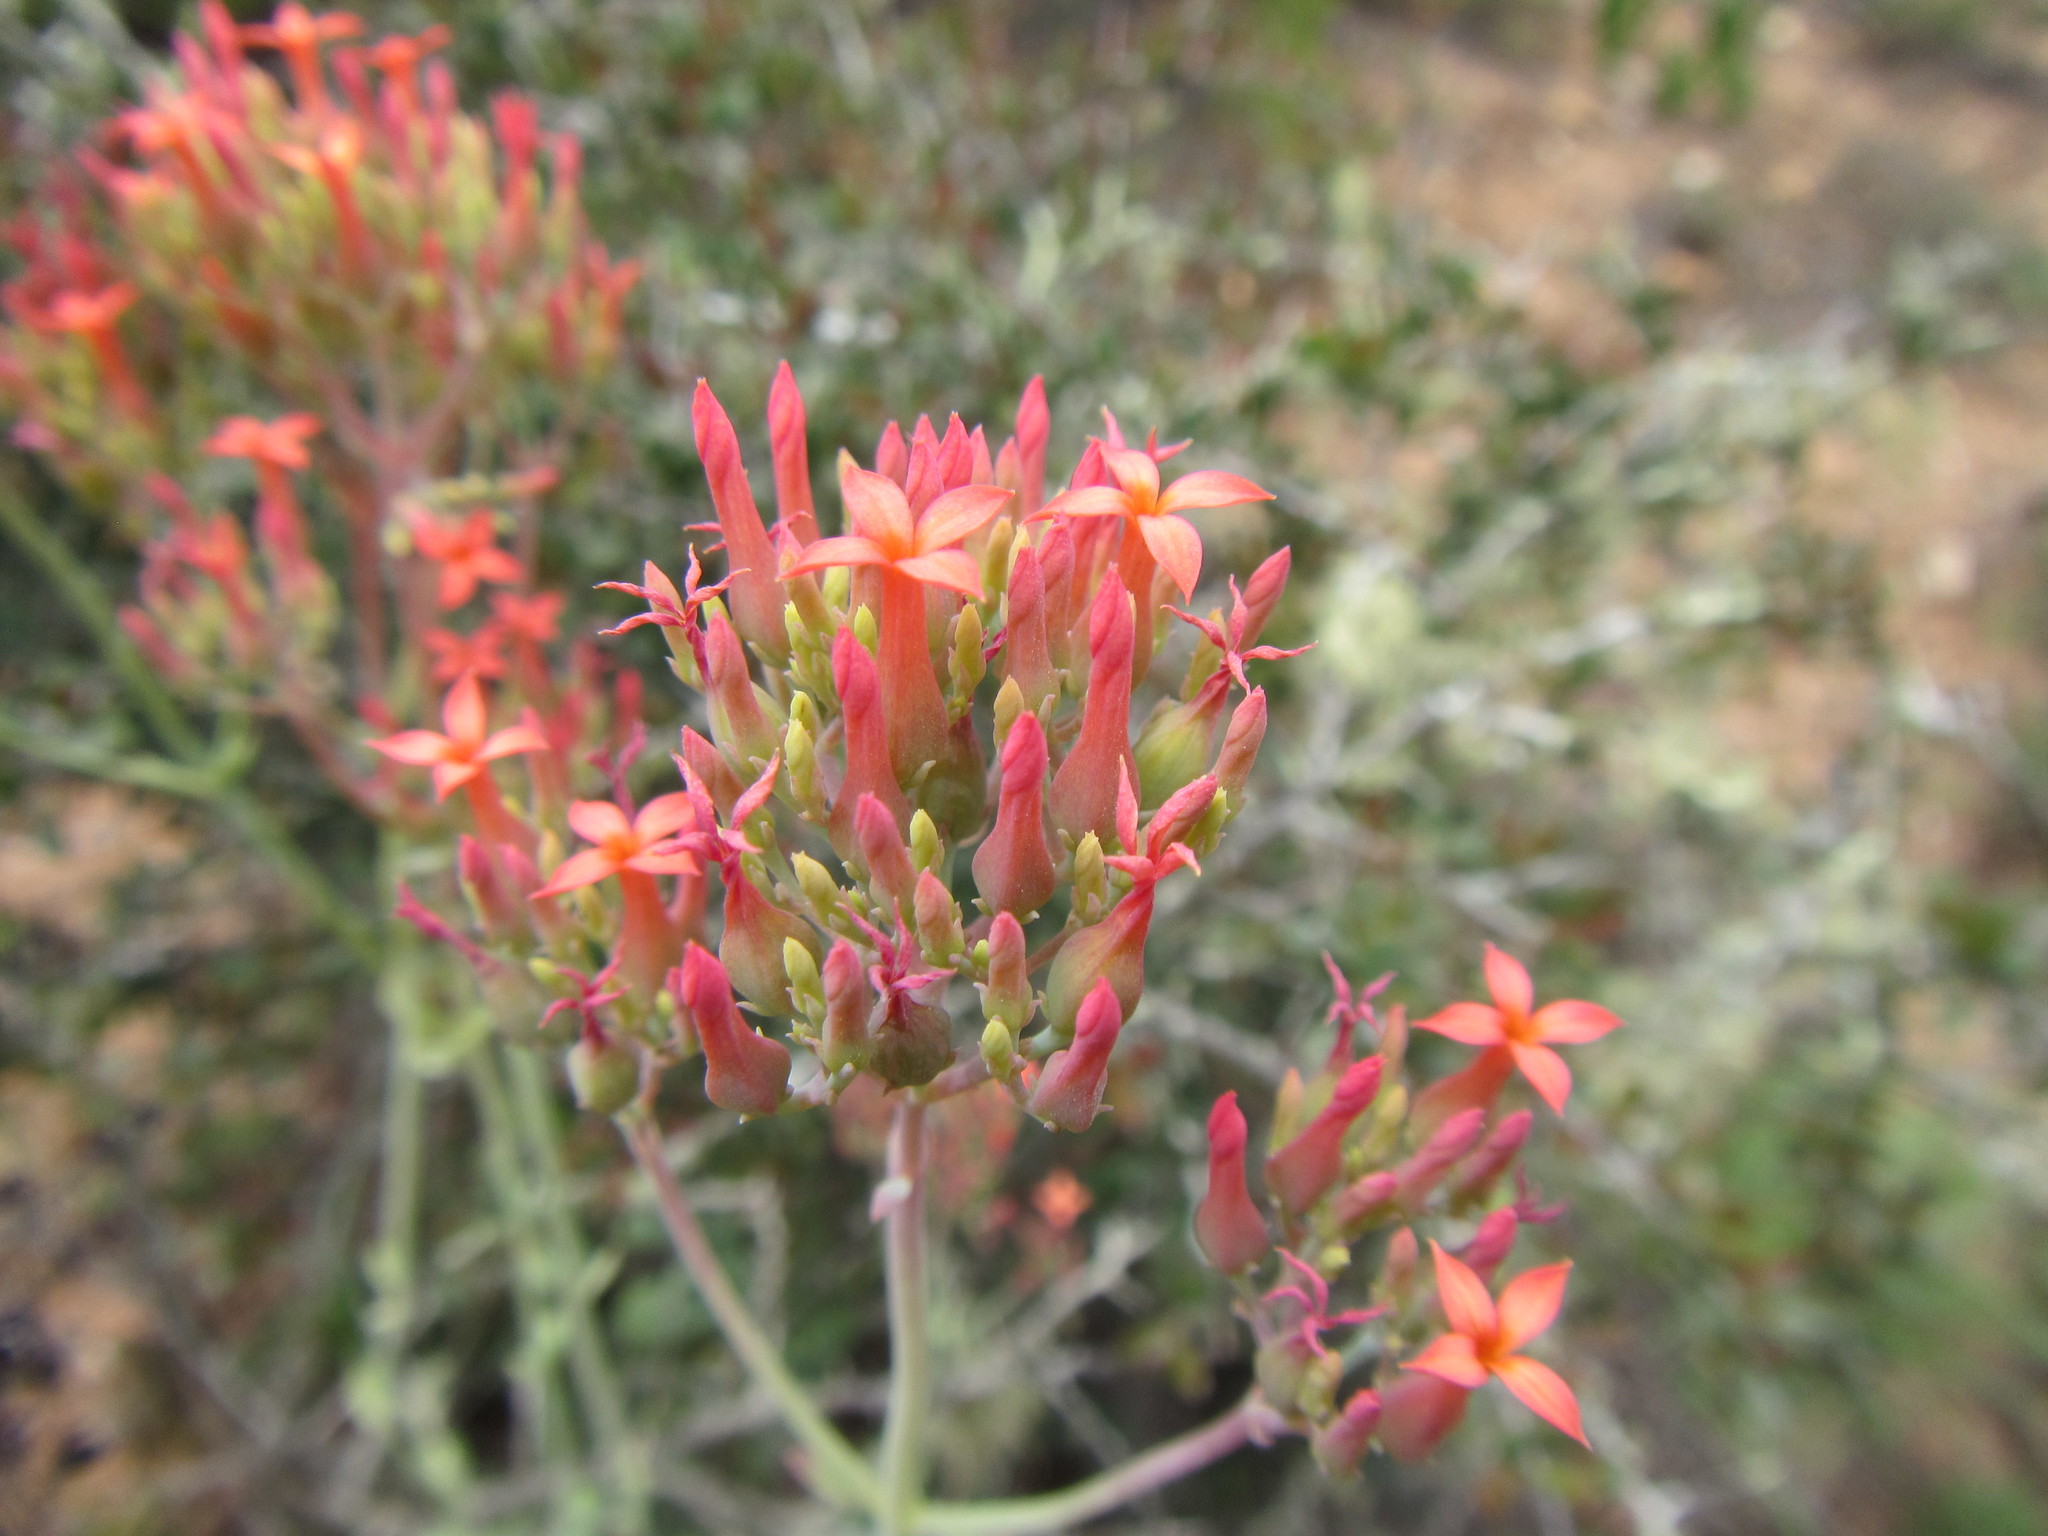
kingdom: Plantae
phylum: Tracheophyta
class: Magnoliopsida
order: Saxifragales
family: Crassulaceae
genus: Kalanchoe
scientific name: Kalanchoe rotundifolia
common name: Common kalanchoe
